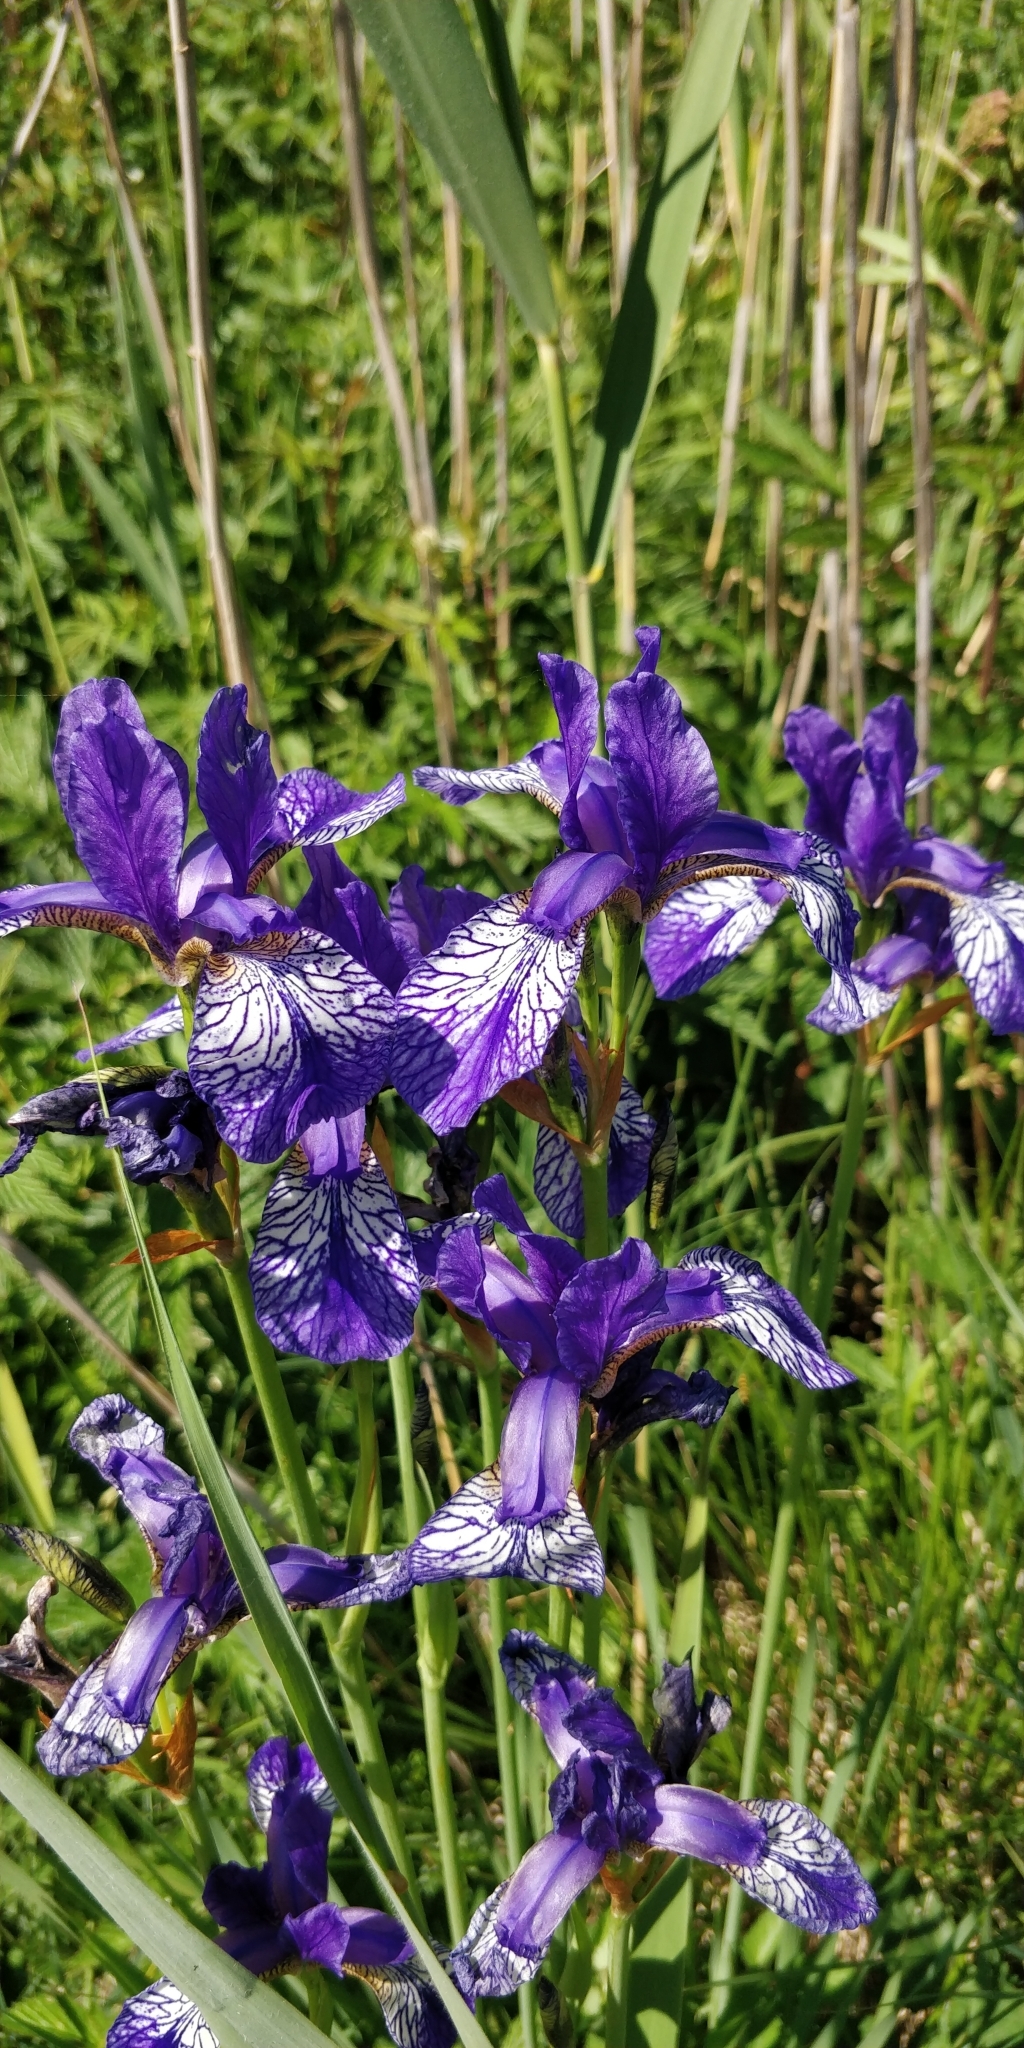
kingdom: Plantae
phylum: Tracheophyta
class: Liliopsida
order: Asparagales
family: Iridaceae
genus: Iris
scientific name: Iris sibirica
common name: Siberian iris
